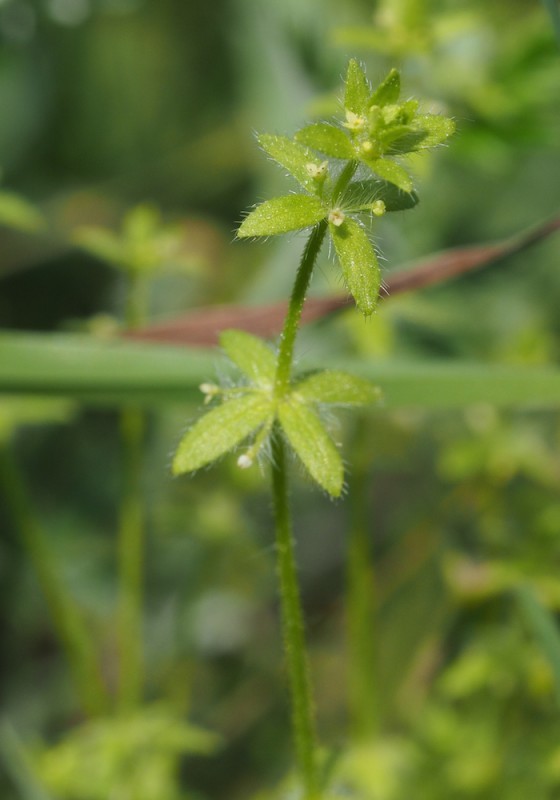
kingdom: Plantae
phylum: Tracheophyta
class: Magnoliopsida
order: Gentianales
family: Rubiaceae
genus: Cruciata
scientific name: Cruciata pedemontana
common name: Piedmont bedstraw
